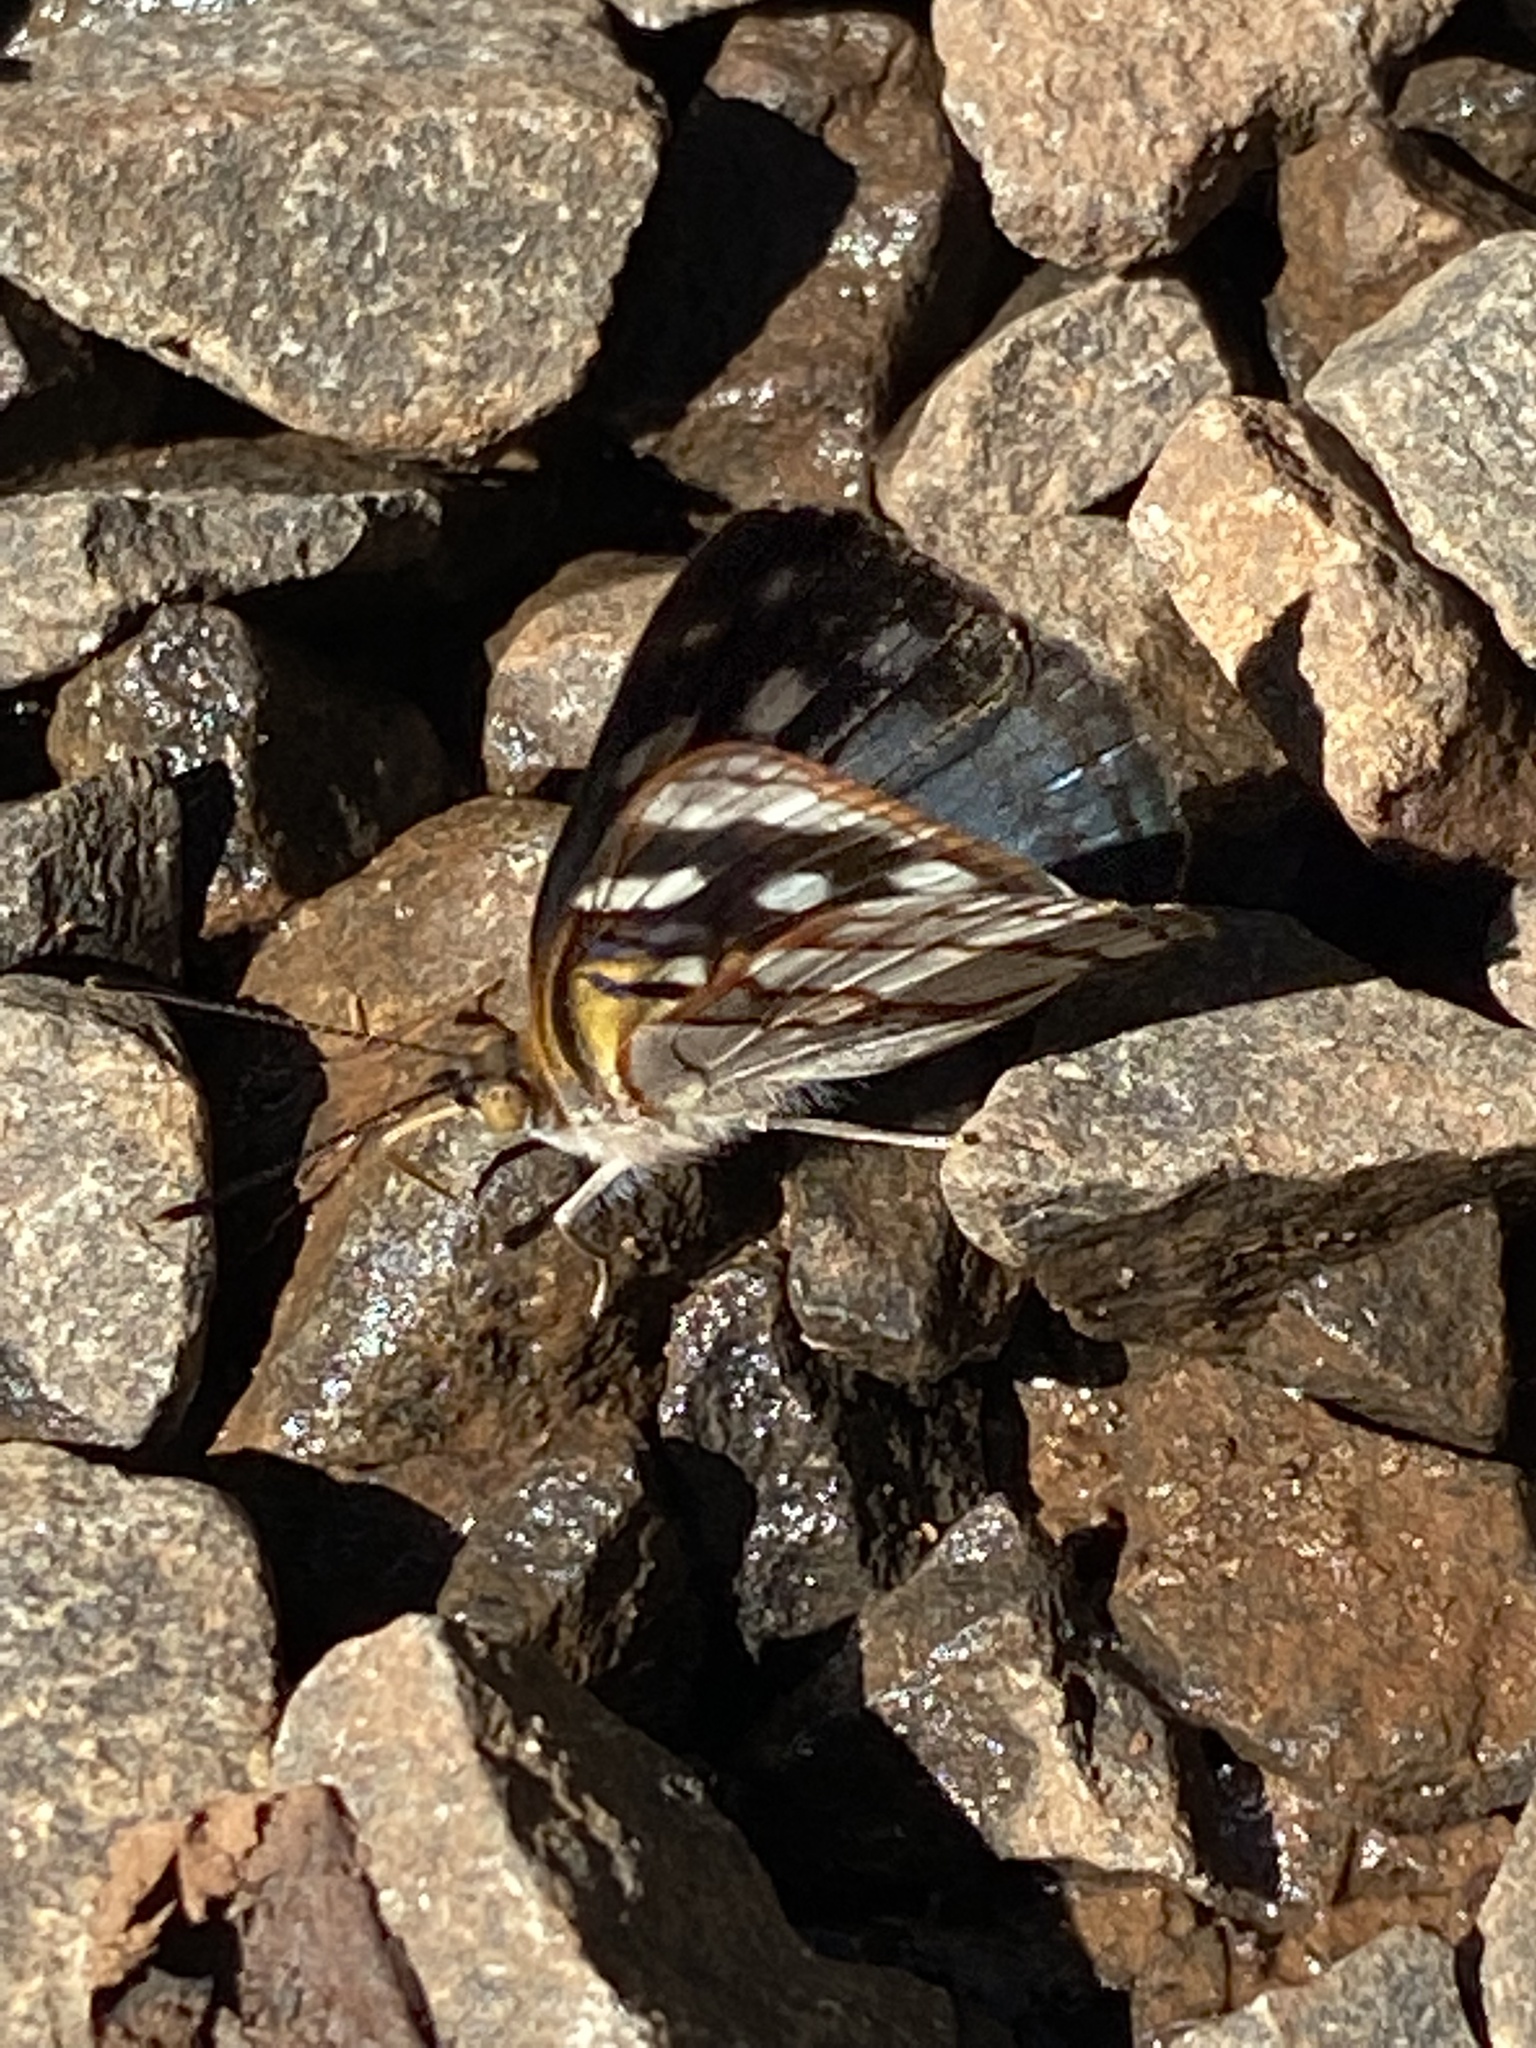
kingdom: Animalia
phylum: Arthropoda
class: Insecta
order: Lepidoptera
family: Nymphalidae
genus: Dynamine
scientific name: Dynamine tithia
